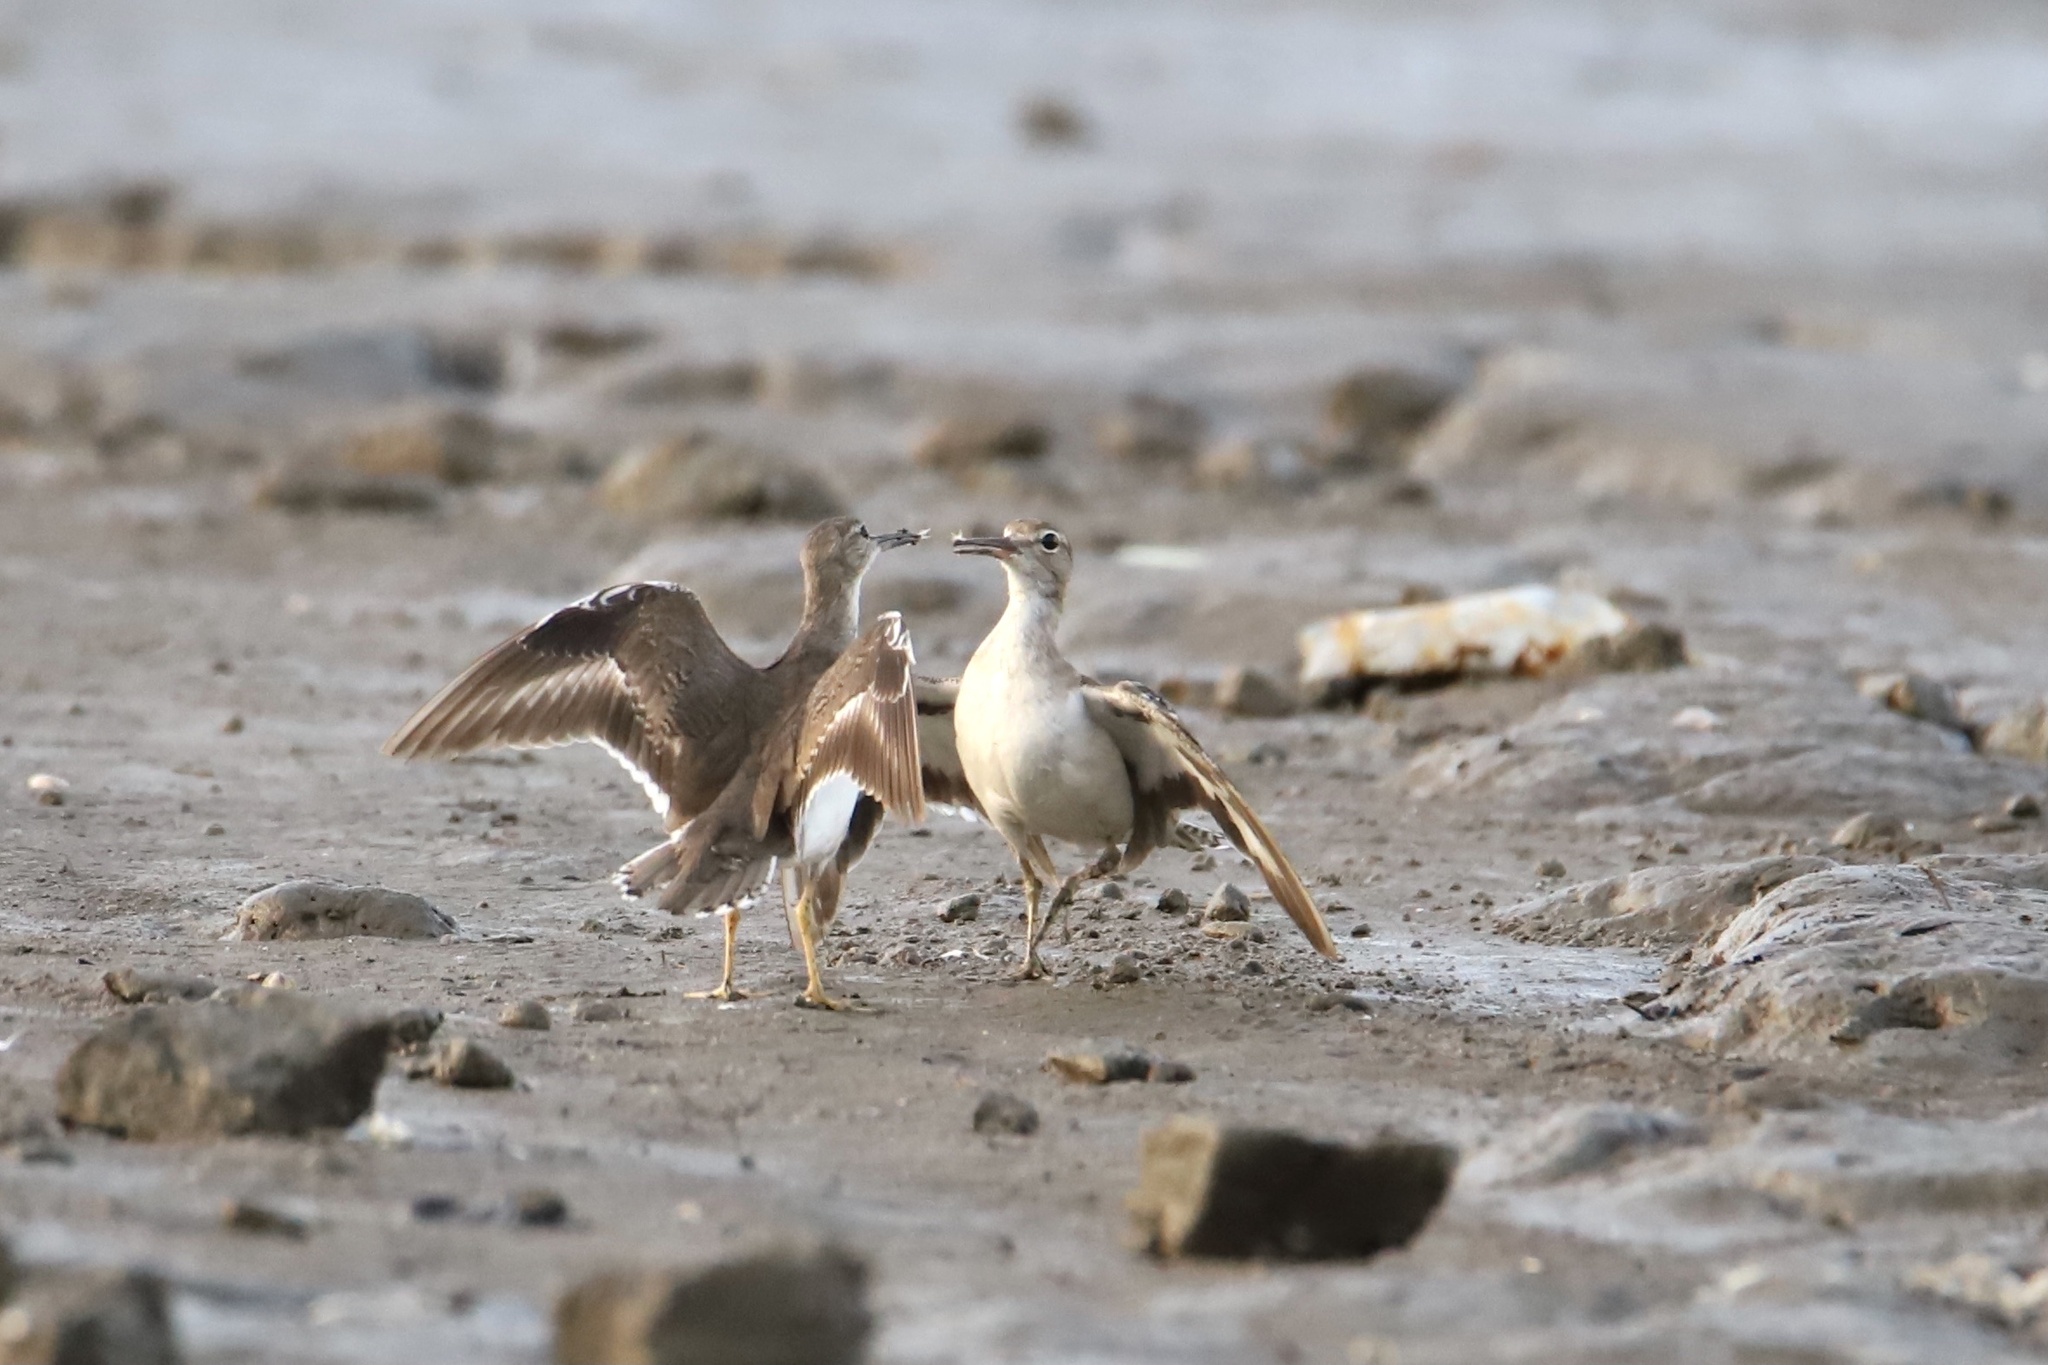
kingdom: Animalia
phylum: Chordata
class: Aves
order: Charadriiformes
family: Scolopacidae
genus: Actitis
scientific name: Actitis macularius
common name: Spotted sandpiper
